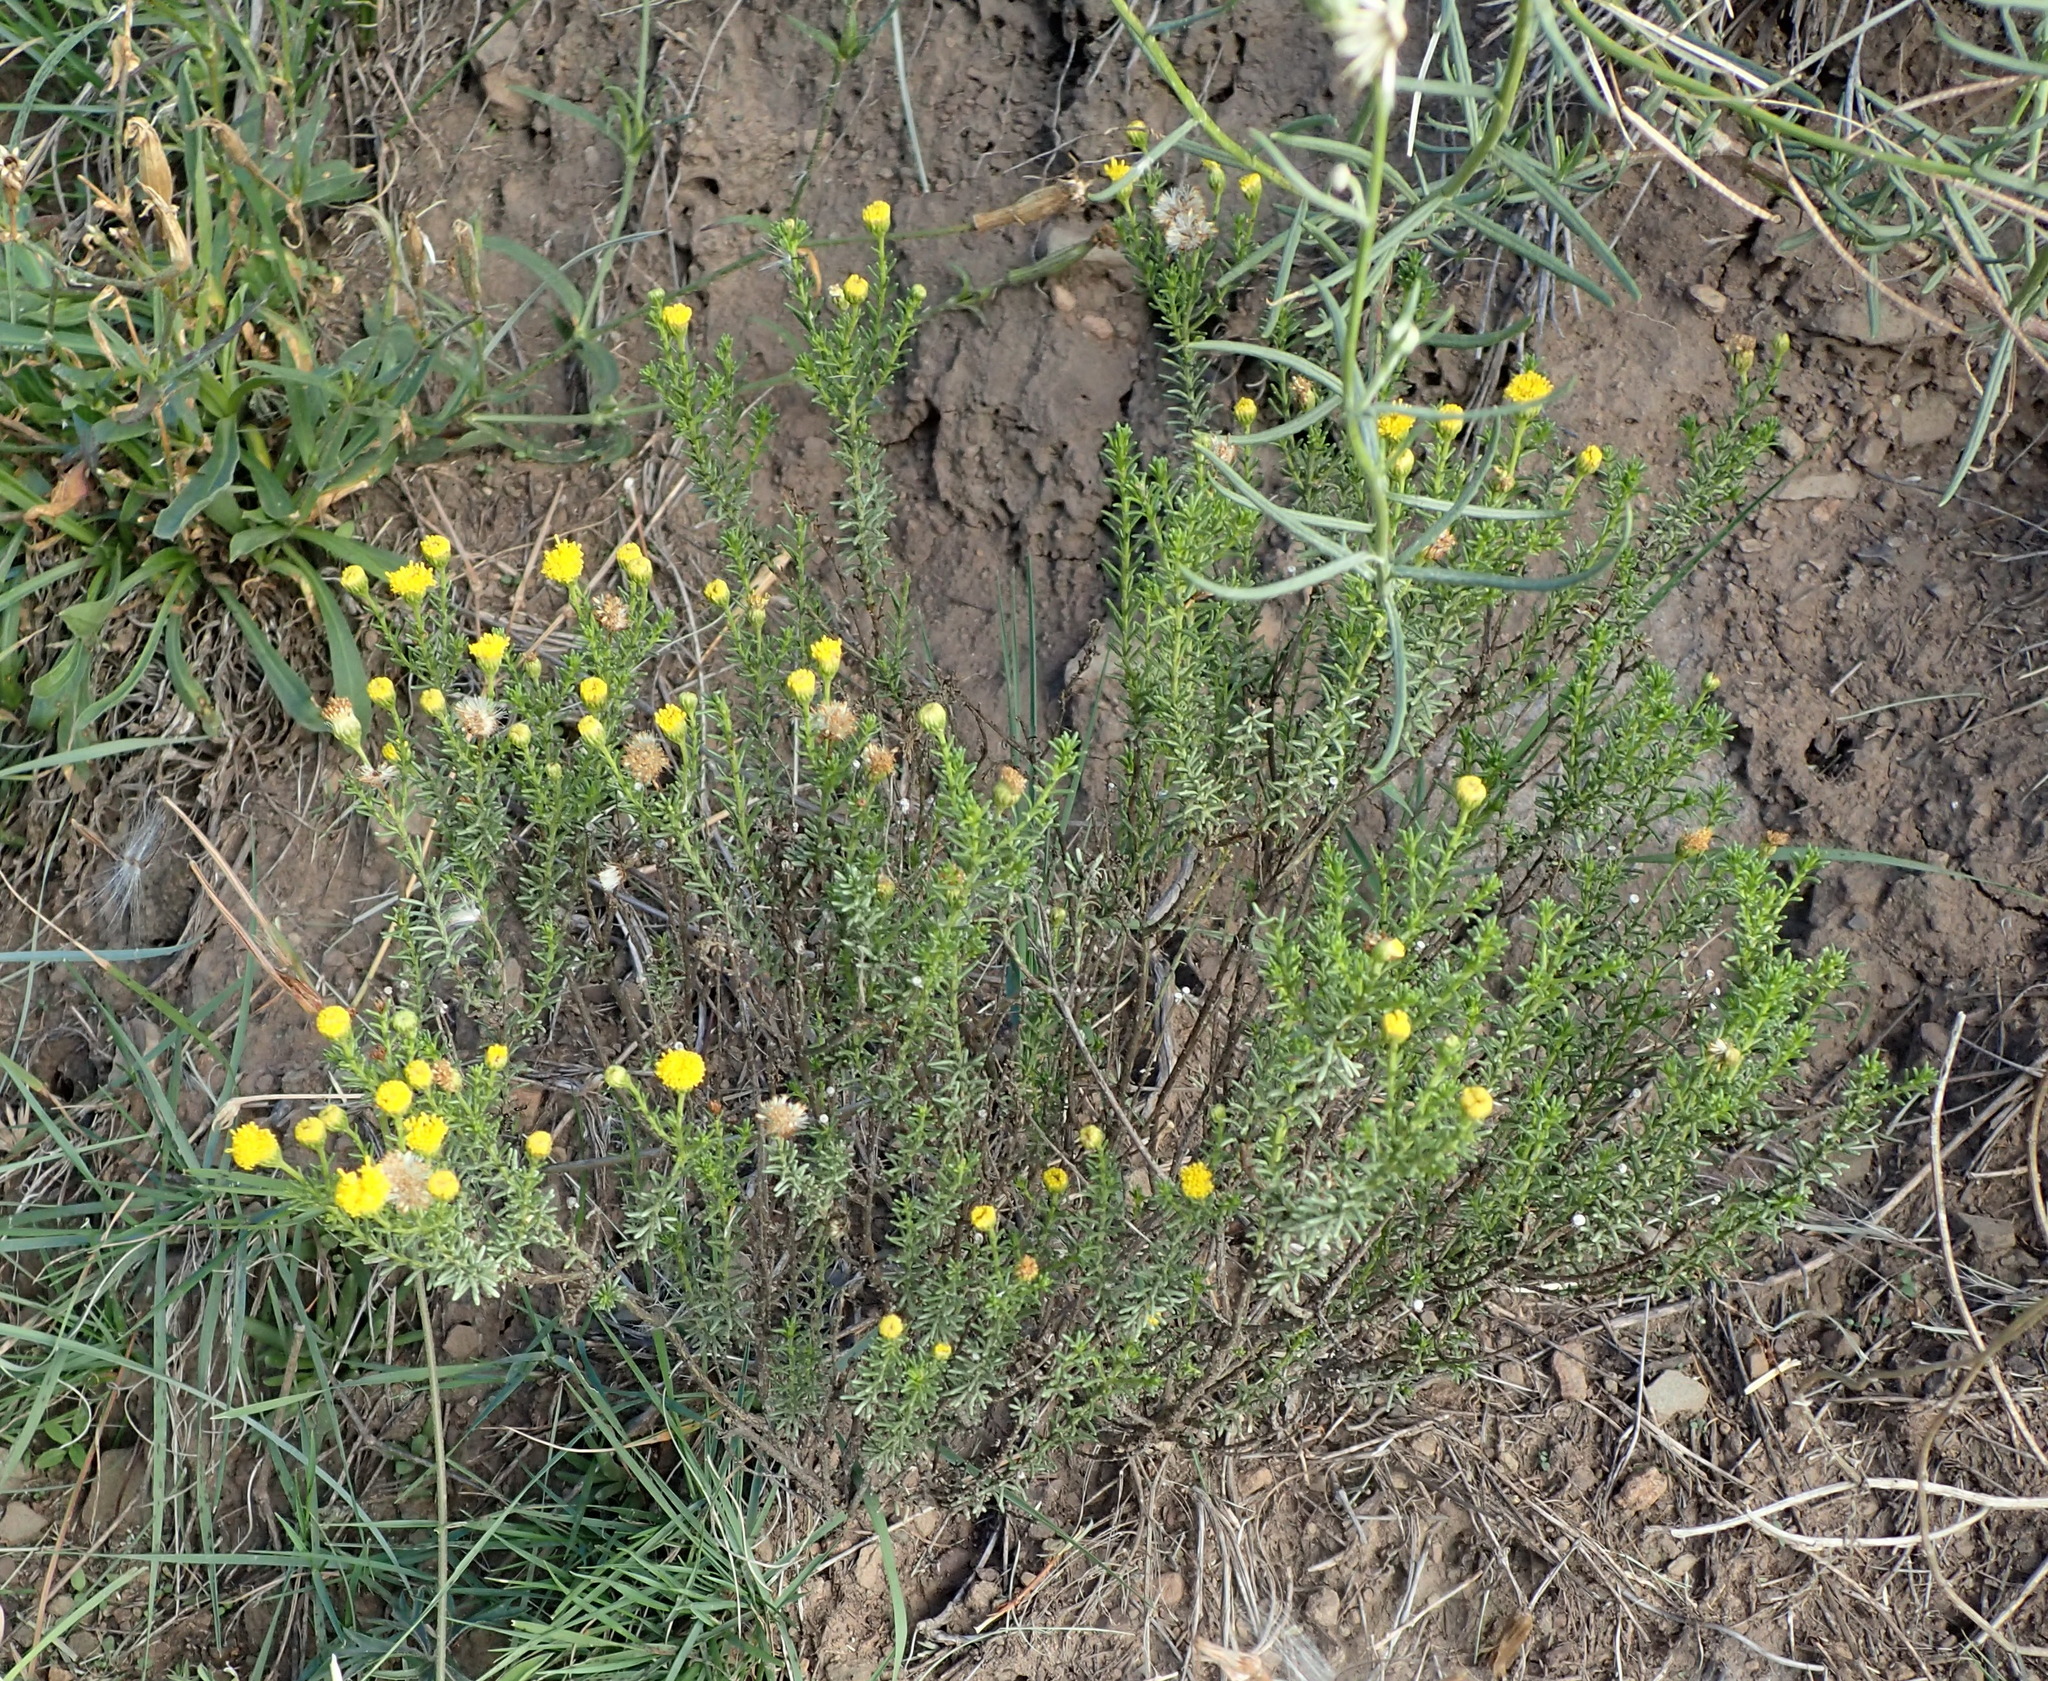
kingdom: Plantae
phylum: Tracheophyta
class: Magnoliopsida
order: Asterales
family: Asteraceae
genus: Chrysocoma
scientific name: Chrysocoma ciliata
